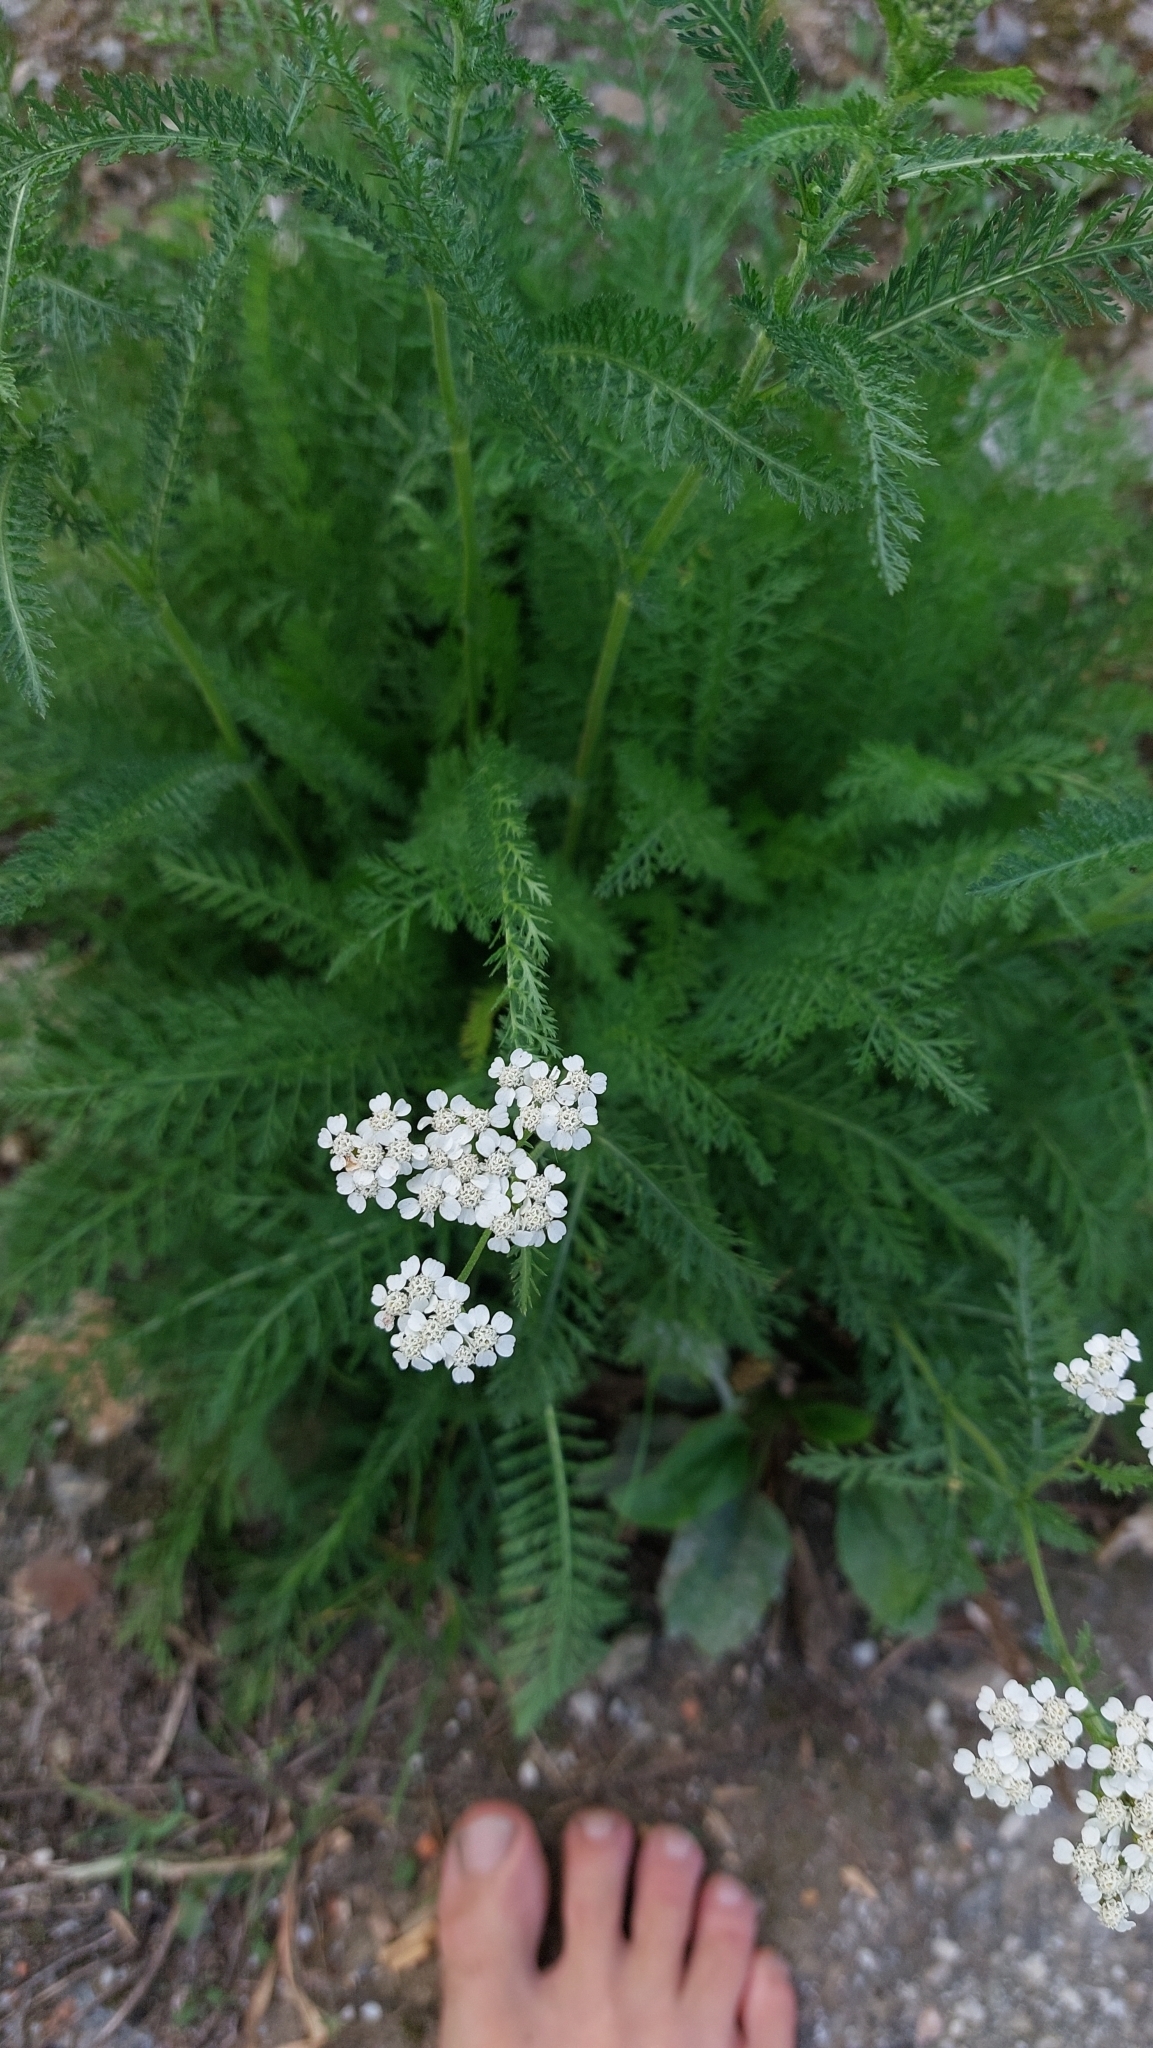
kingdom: Plantae
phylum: Tracheophyta
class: Magnoliopsida
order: Asterales
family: Asteraceae
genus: Achillea
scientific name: Achillea millefolium
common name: Yarrow
